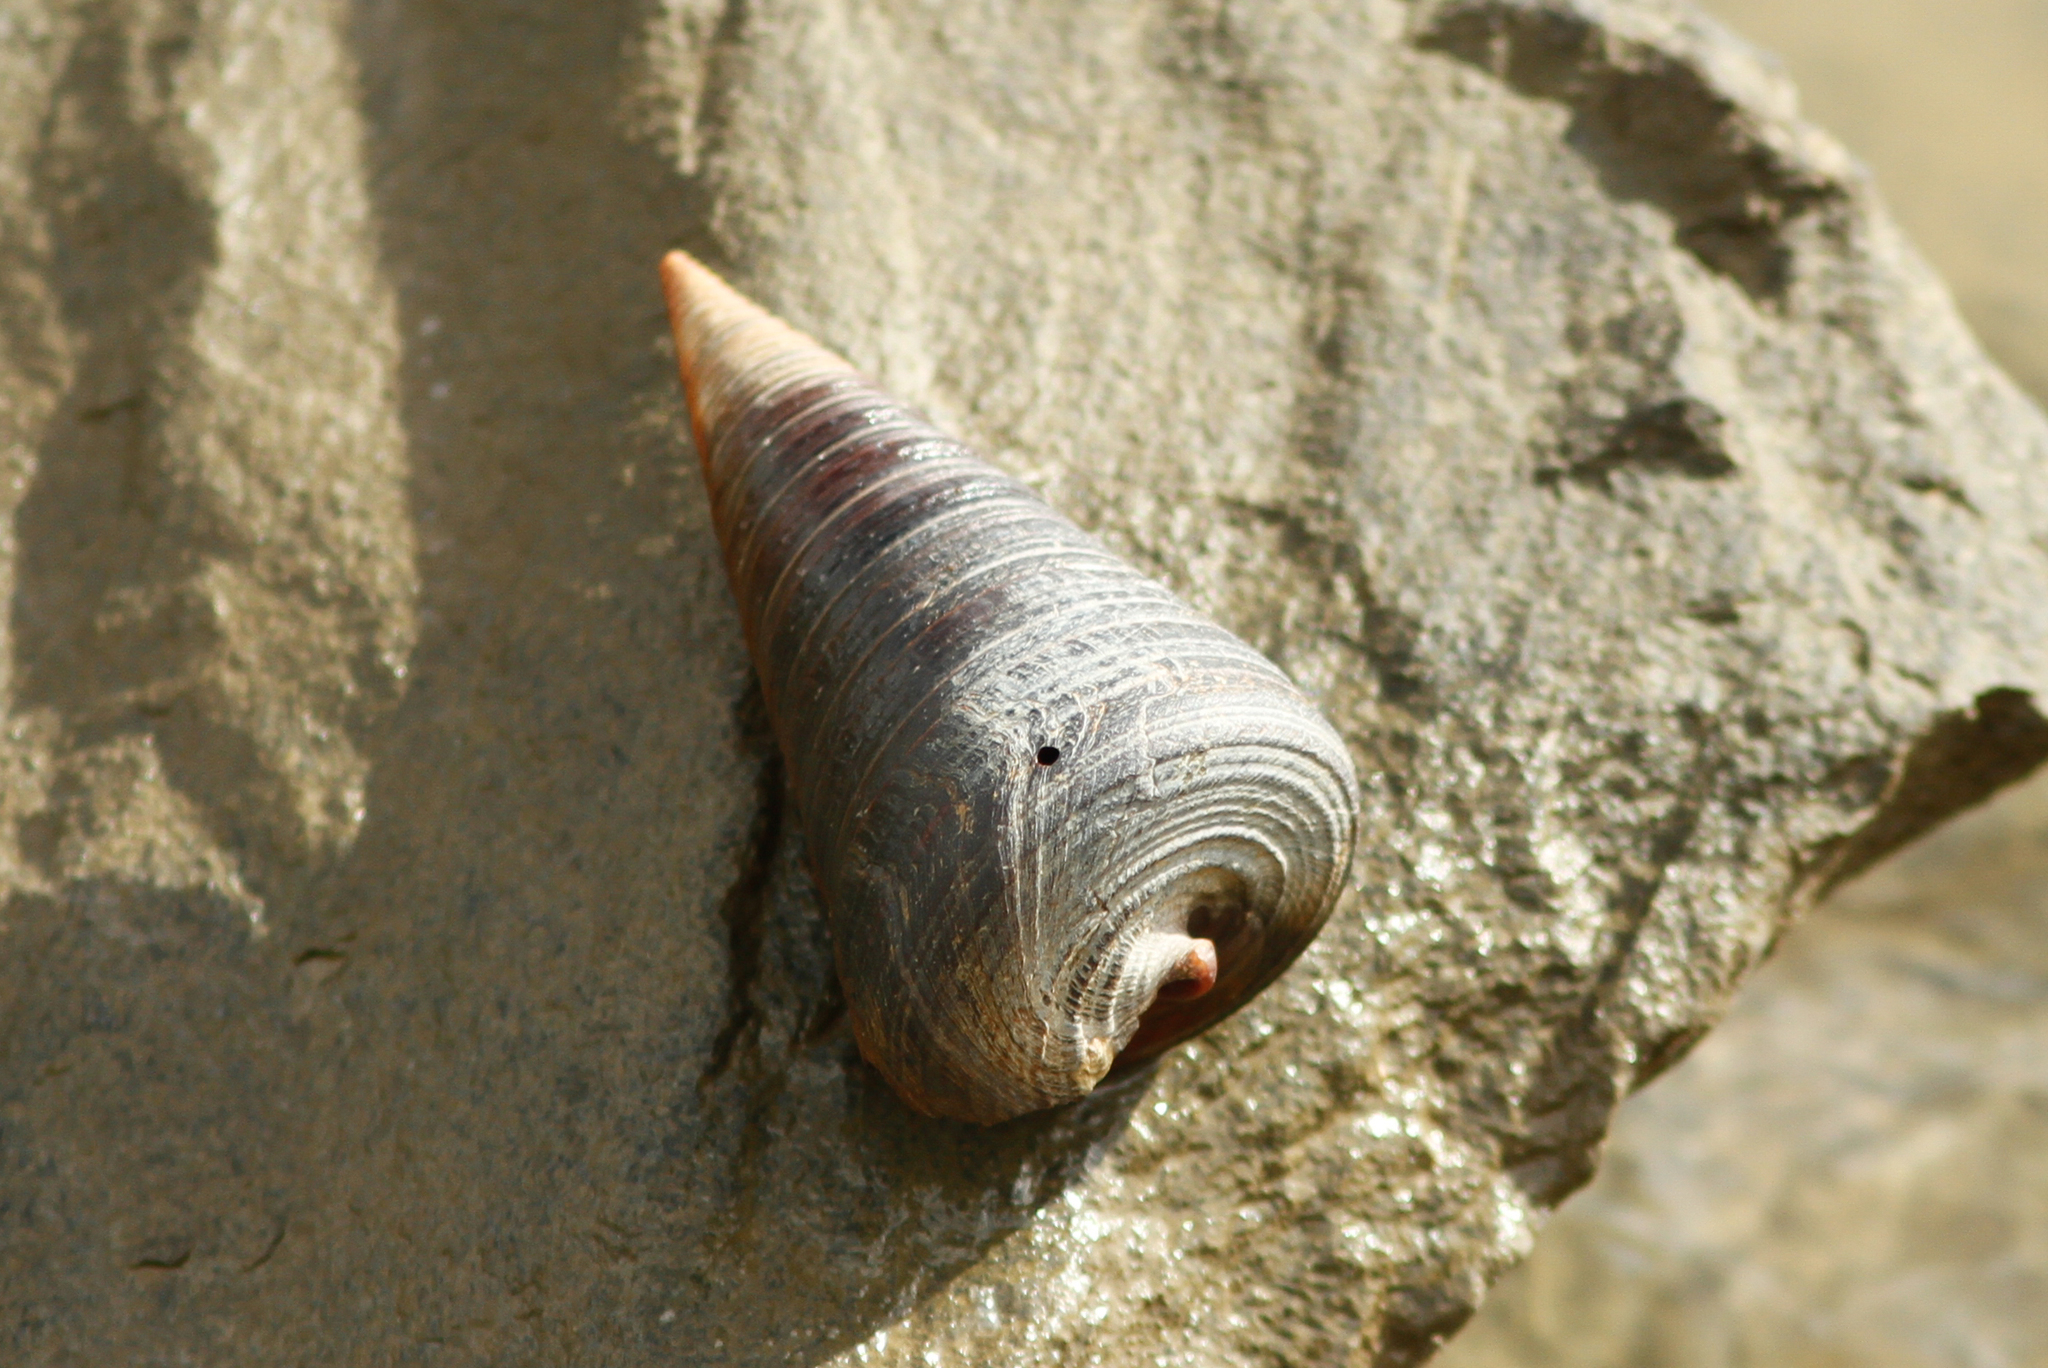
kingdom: Animalia
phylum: Mollusca
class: Gastropoda
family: Potamididae
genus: Telescopium
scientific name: Telescopium telescopium
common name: Telescope creeper
